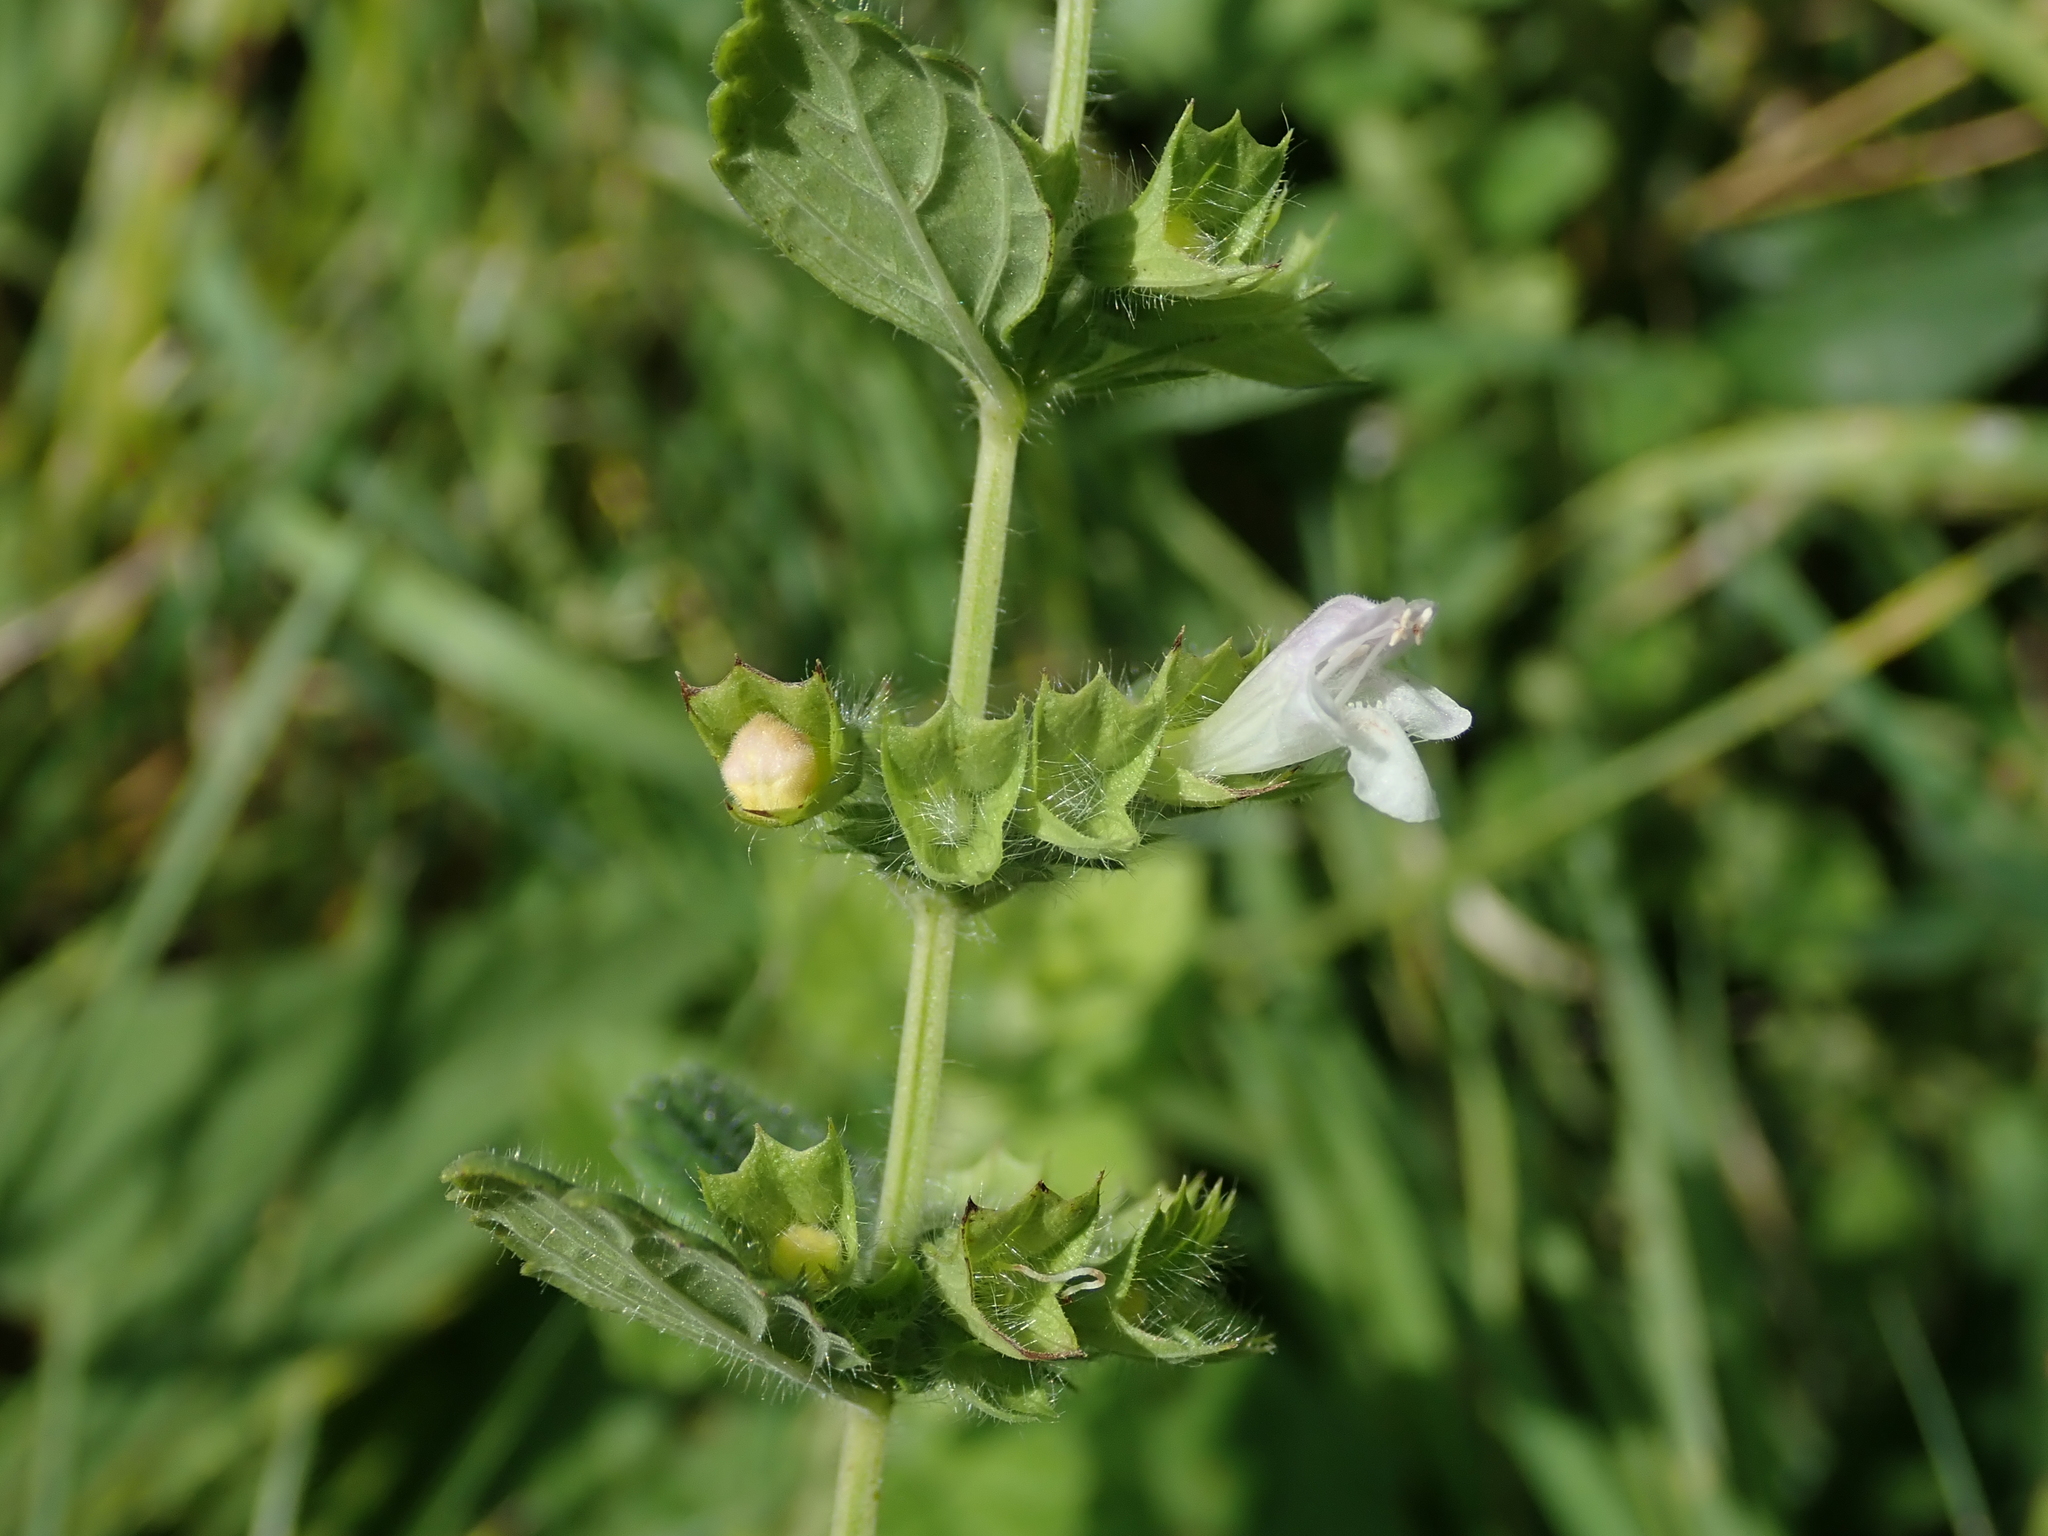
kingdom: Plantae
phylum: Tracheophyta
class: Magnoliopsida
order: Lamiales
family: Lamiaceae
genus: Melissa
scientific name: Melissa officinalis
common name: Balm
